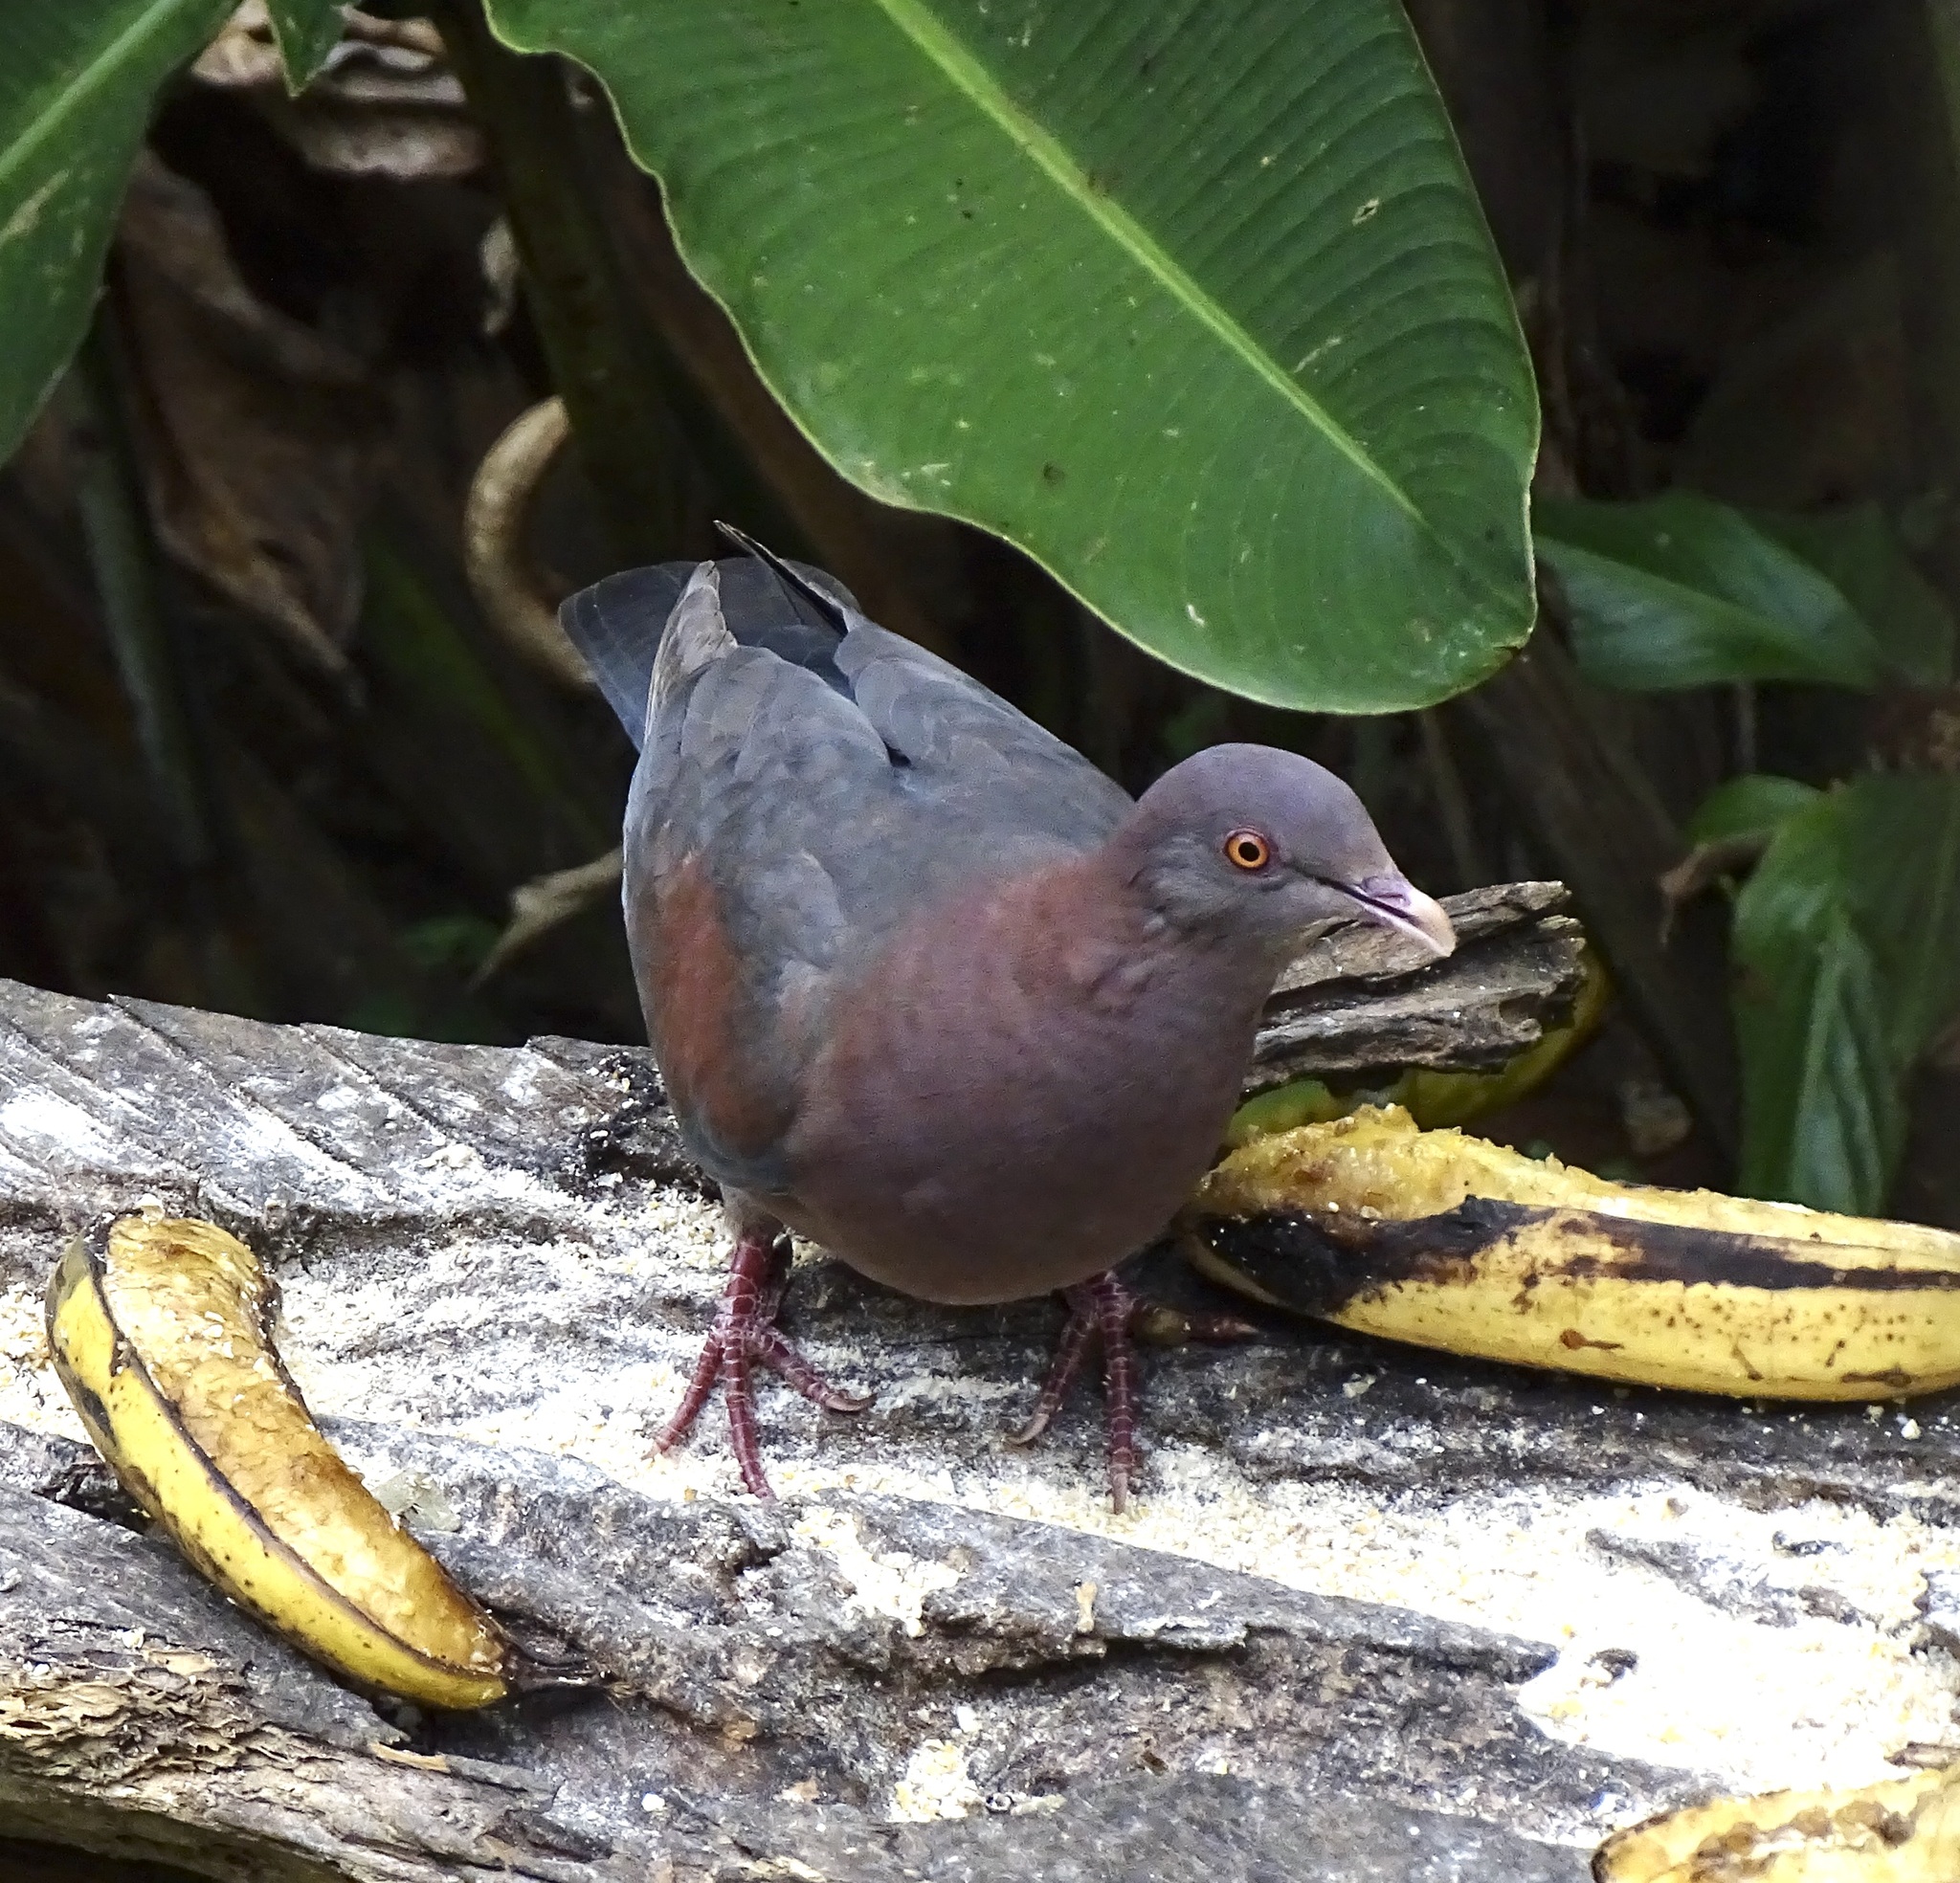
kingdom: Animalia
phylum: Chordata
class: Aves
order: Columbiformes
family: Columbidae
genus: Patagioenas
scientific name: Patagioenas flavirostris
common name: Red-billed pigeon
